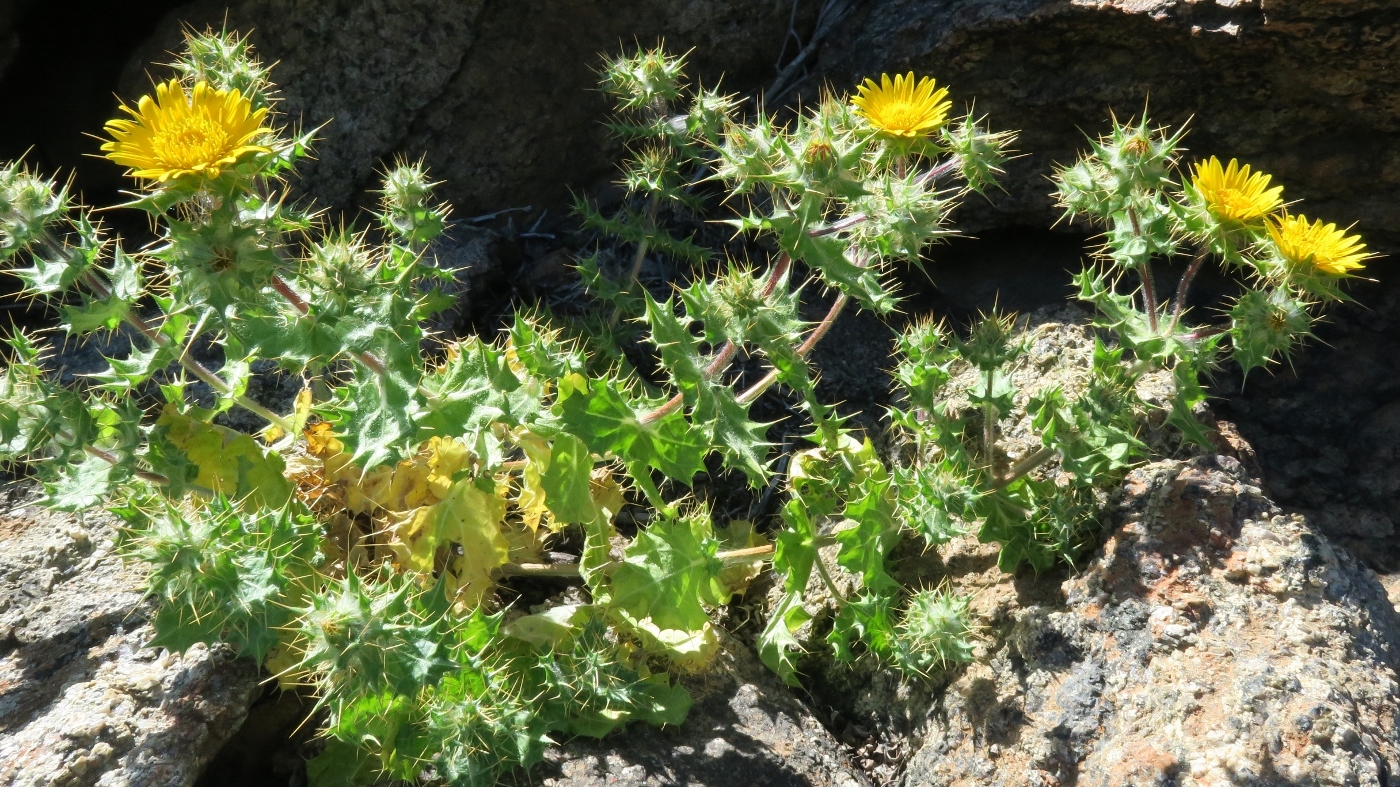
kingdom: Plantae
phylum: Tracheophyta
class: Magnoliopsida
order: Asterales
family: Asteraceae
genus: Berkheya
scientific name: Berkheya spinosissima
